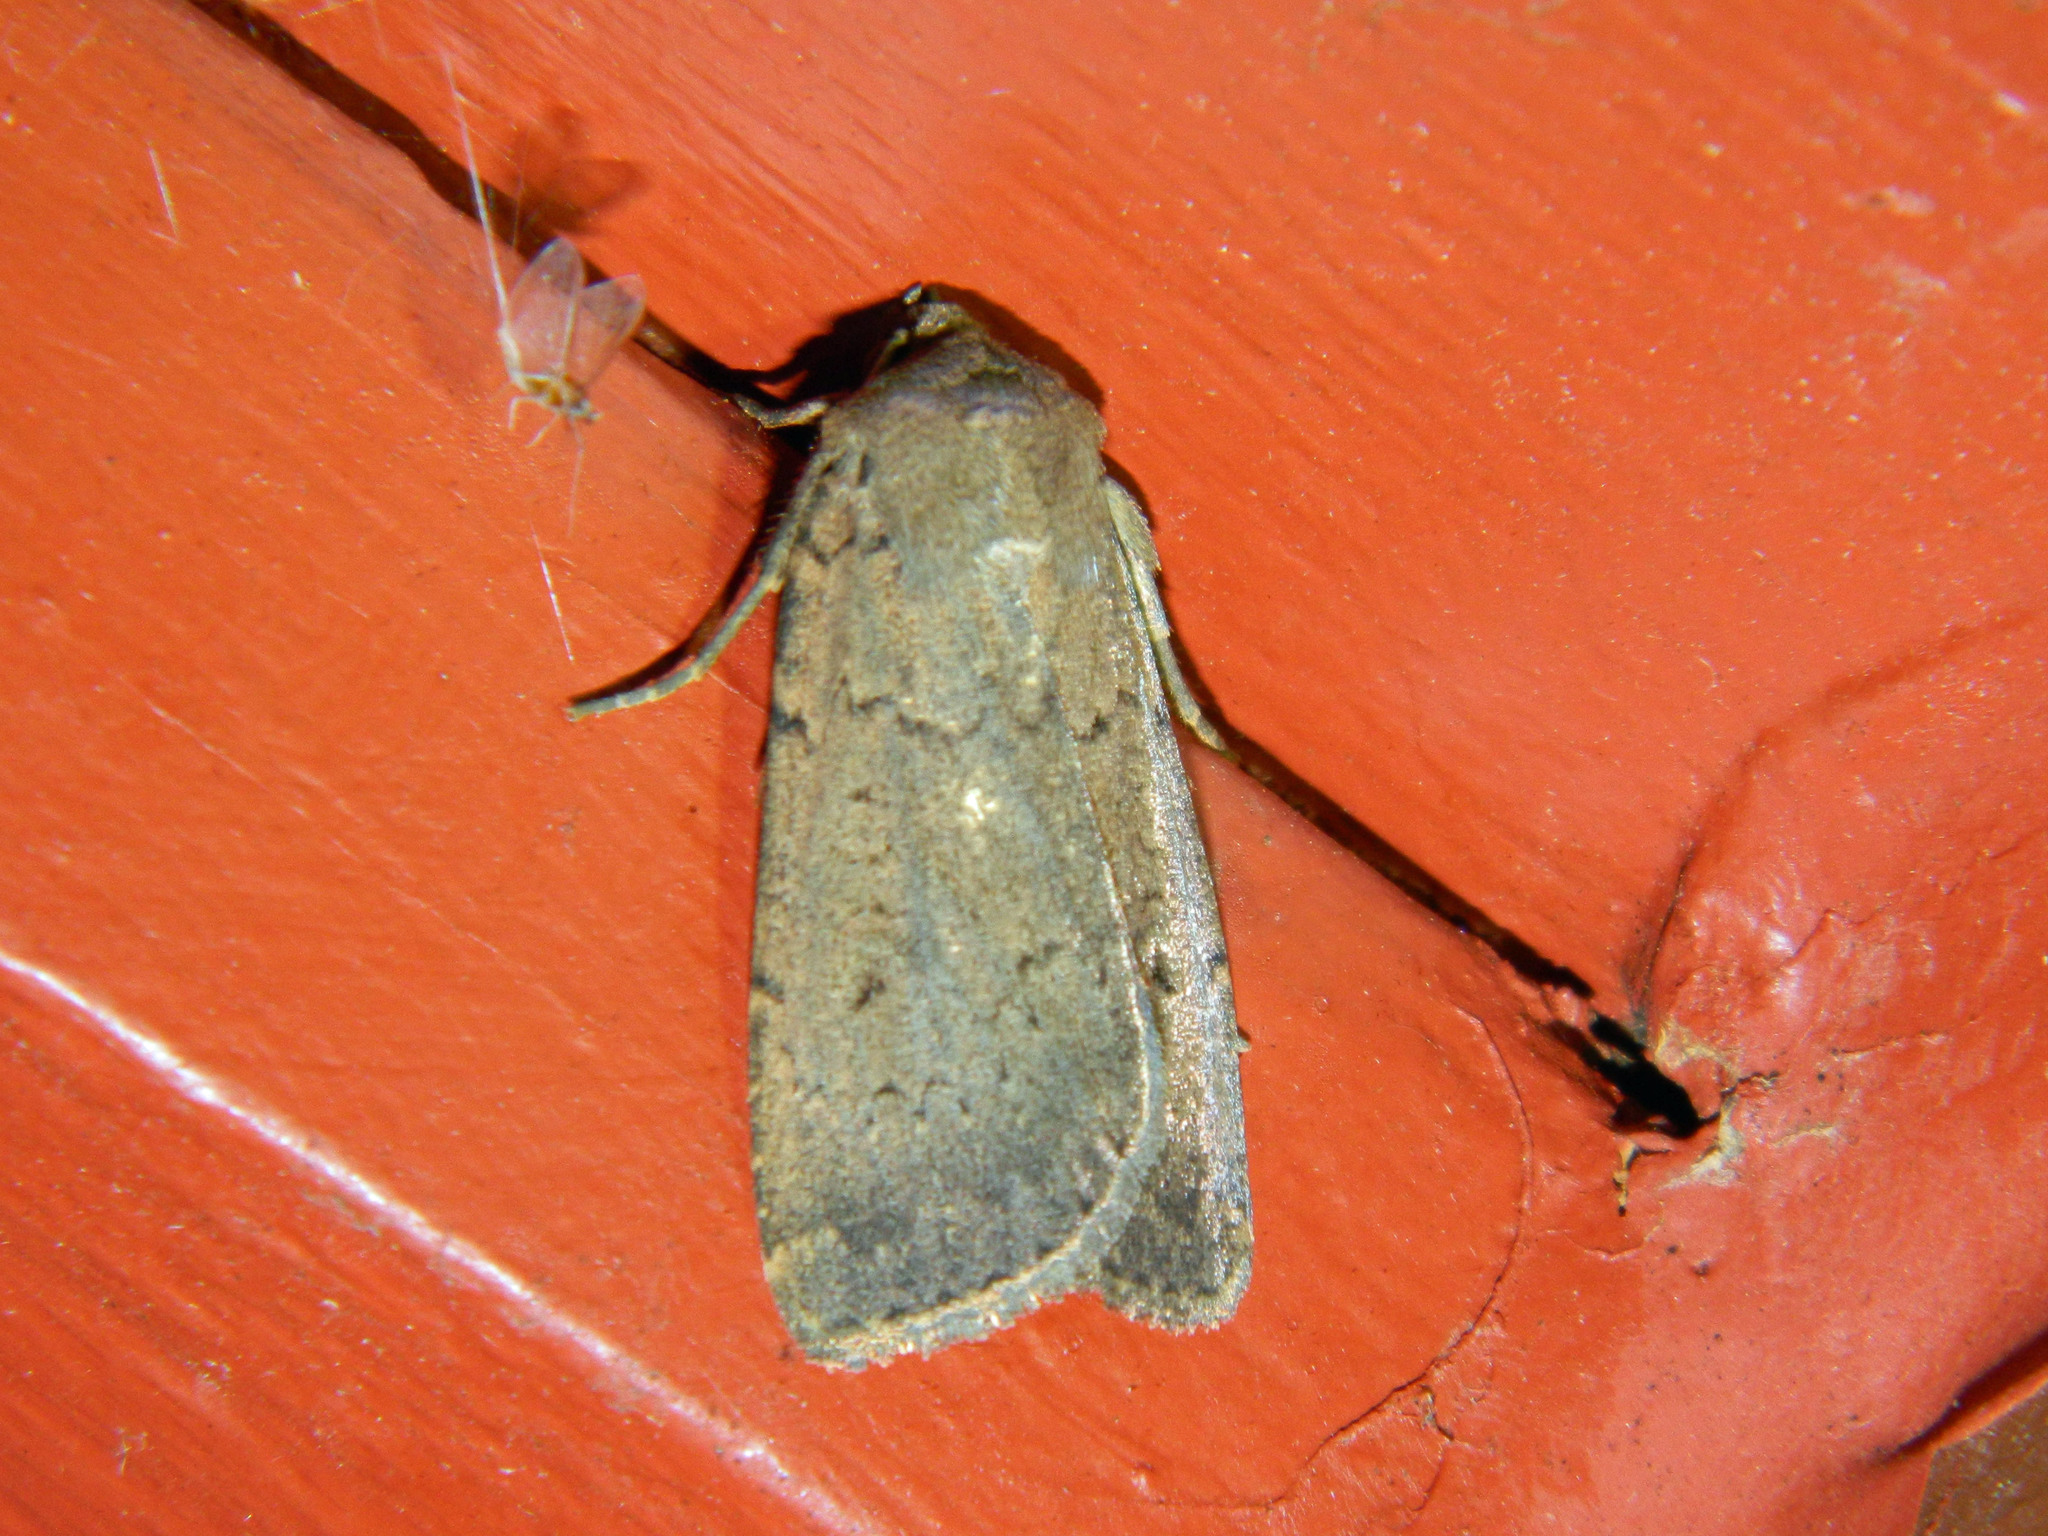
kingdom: Animalia
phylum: Arthropoda
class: Insecta
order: Lepidoptera
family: Noctuidae
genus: Graphiphora
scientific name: Graphiphora augur
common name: Double dart
